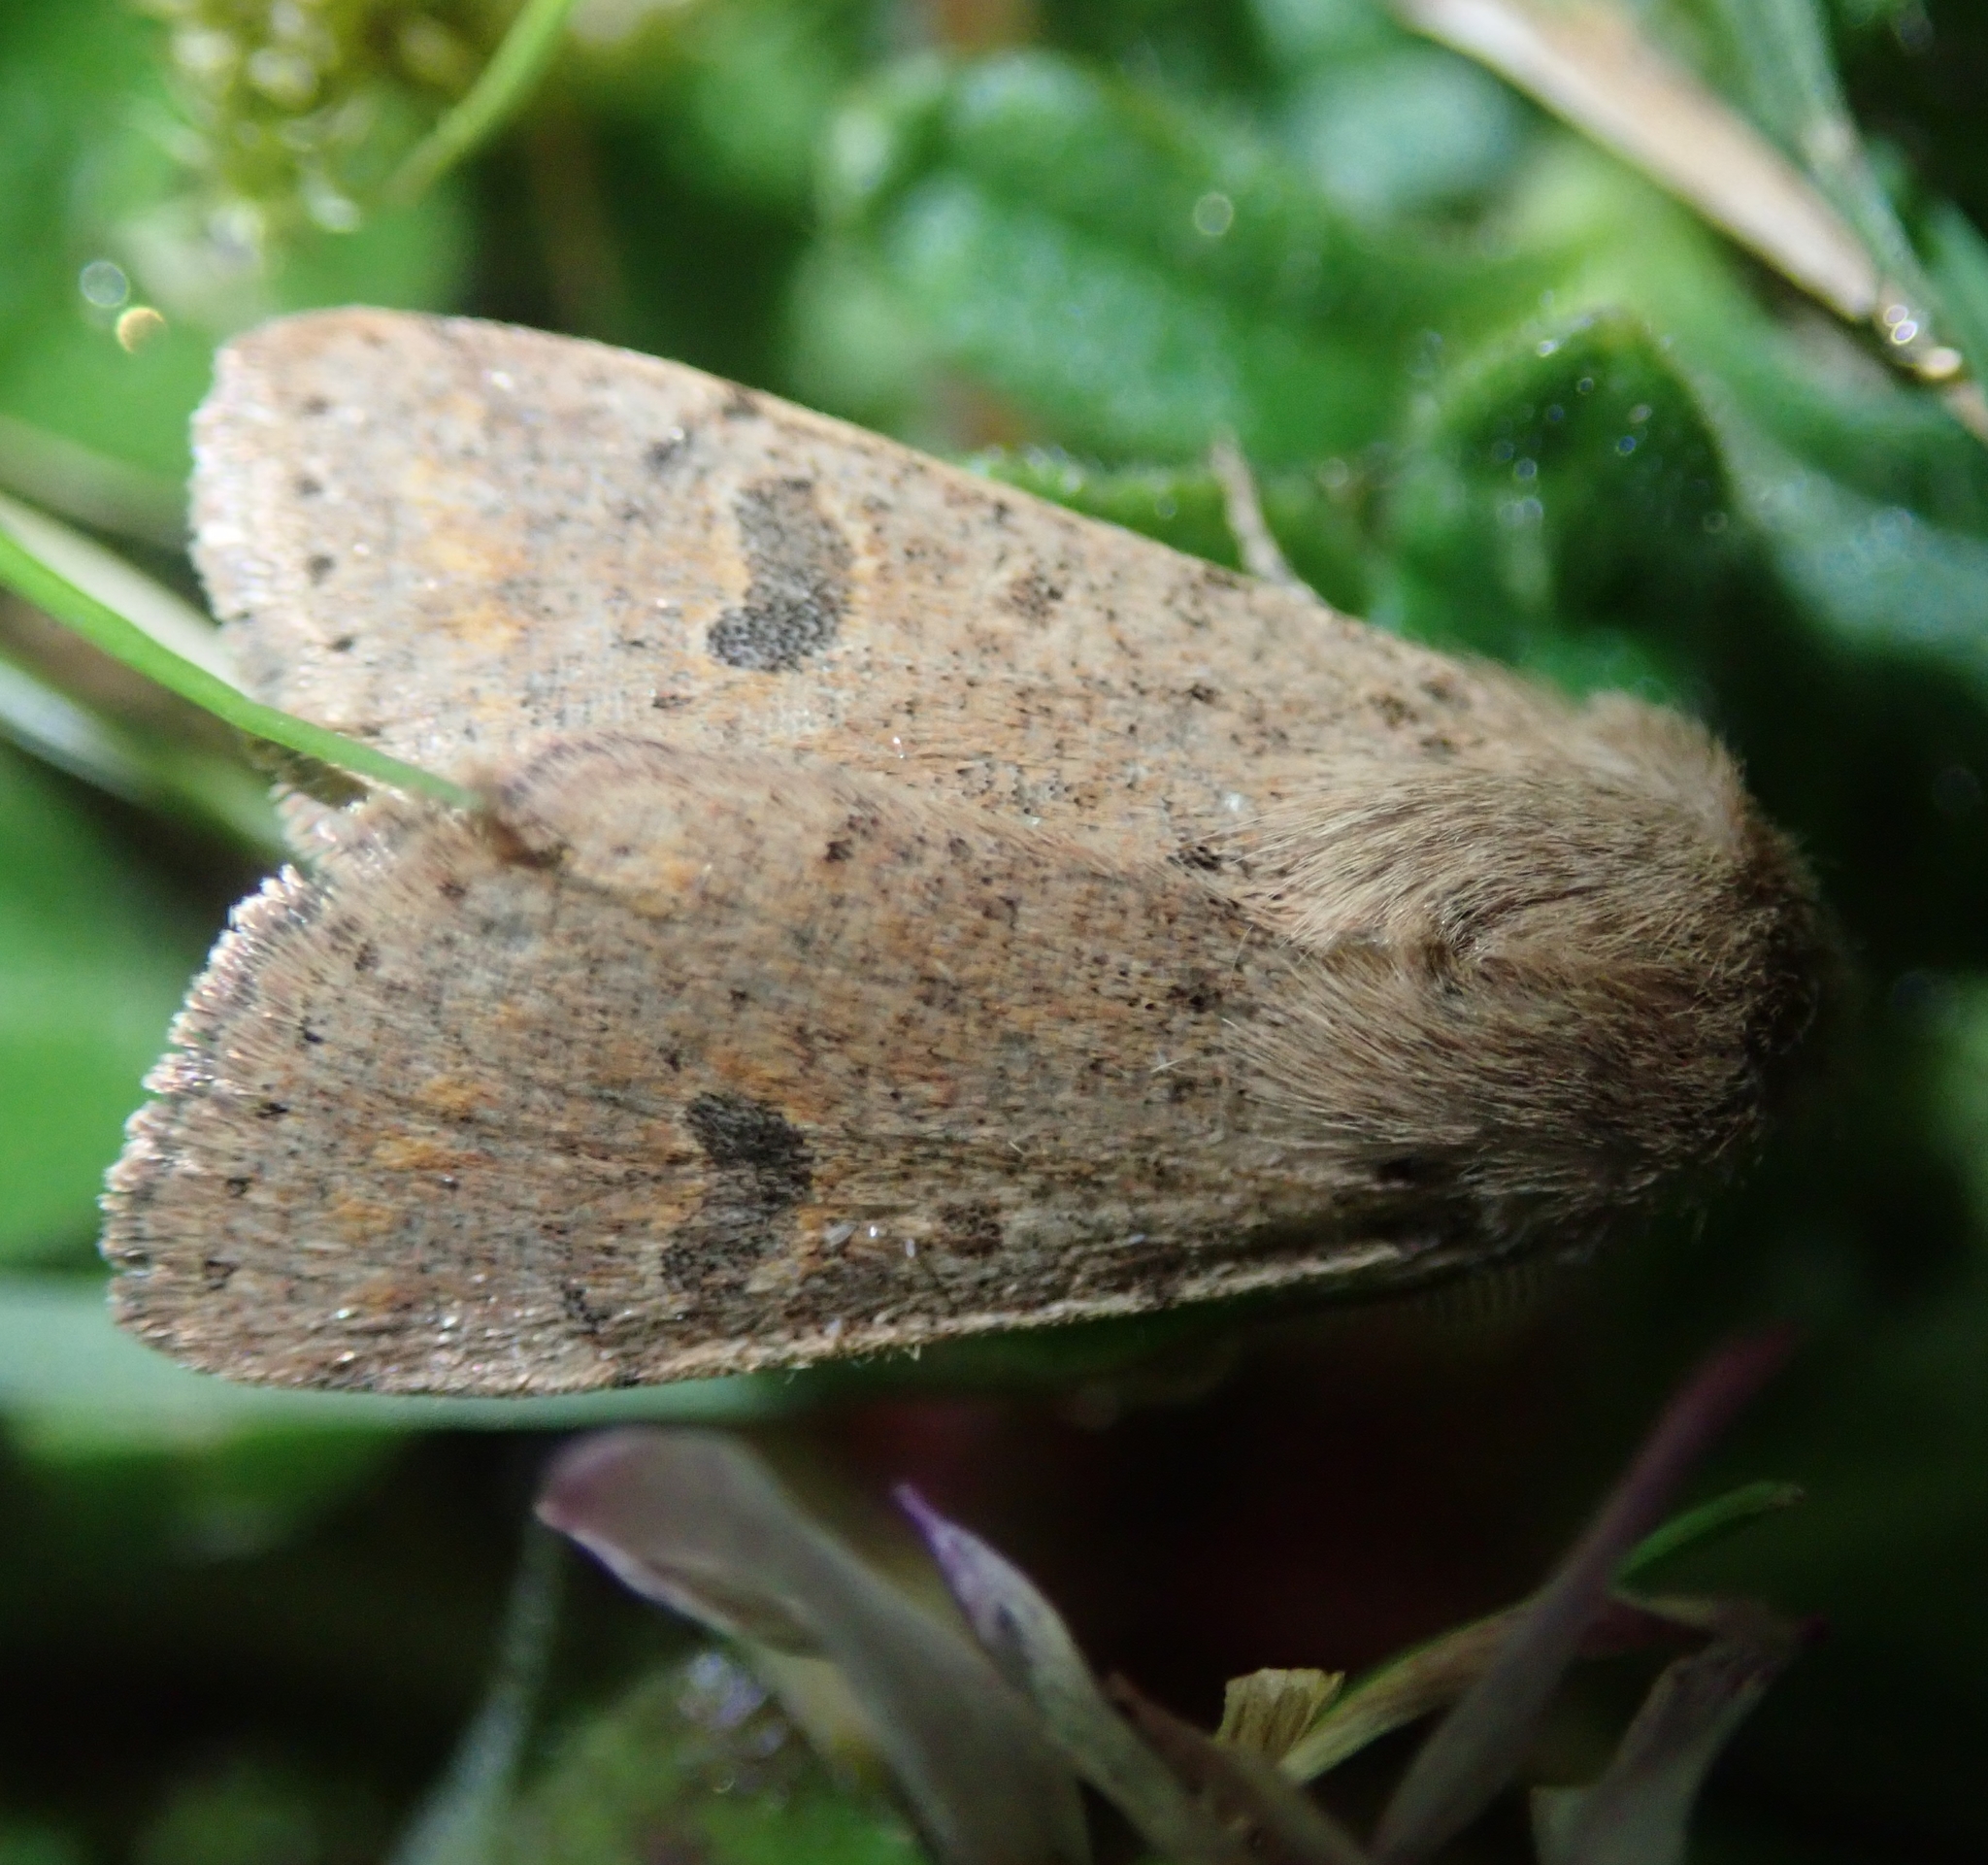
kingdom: Animalia
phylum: Arthropoda
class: Insecta
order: Lepidoptera
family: Noctuidae
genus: Orthosia
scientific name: Orthosia cruda
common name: Small quaker
